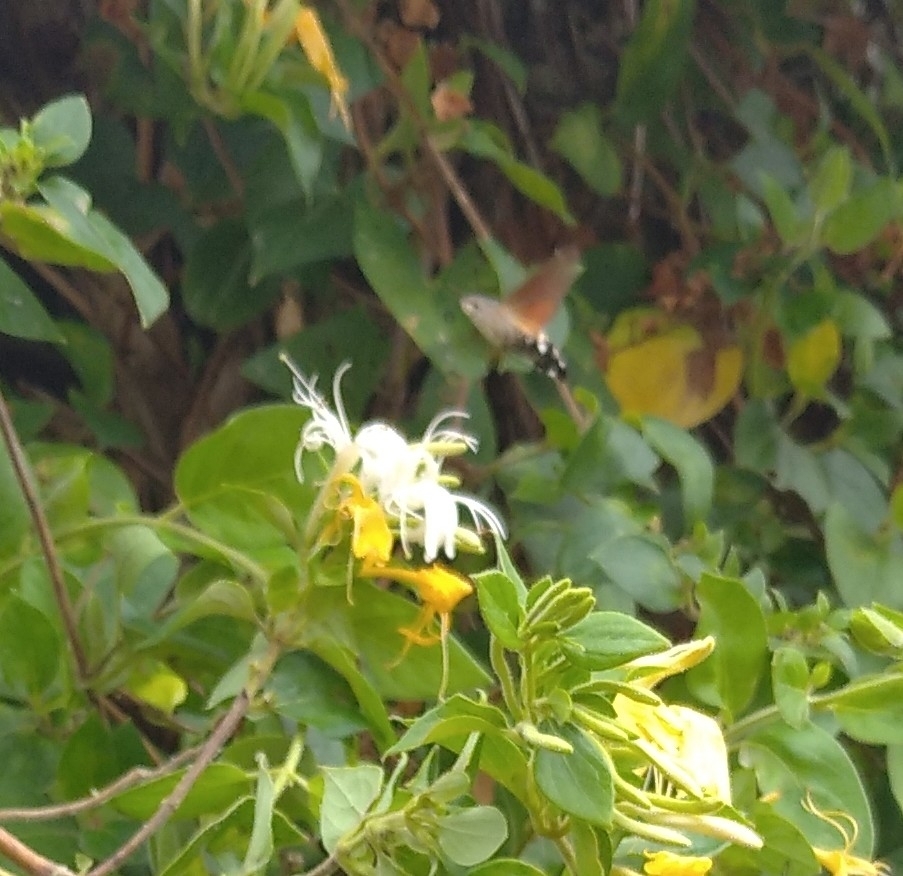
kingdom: Animalia
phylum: Arthropoda
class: Insecta
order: Lepidoptera
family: Sphingidae
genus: Macroglossum
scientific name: Macroglossum stellatarum
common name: Humming-bird hawk-moth
